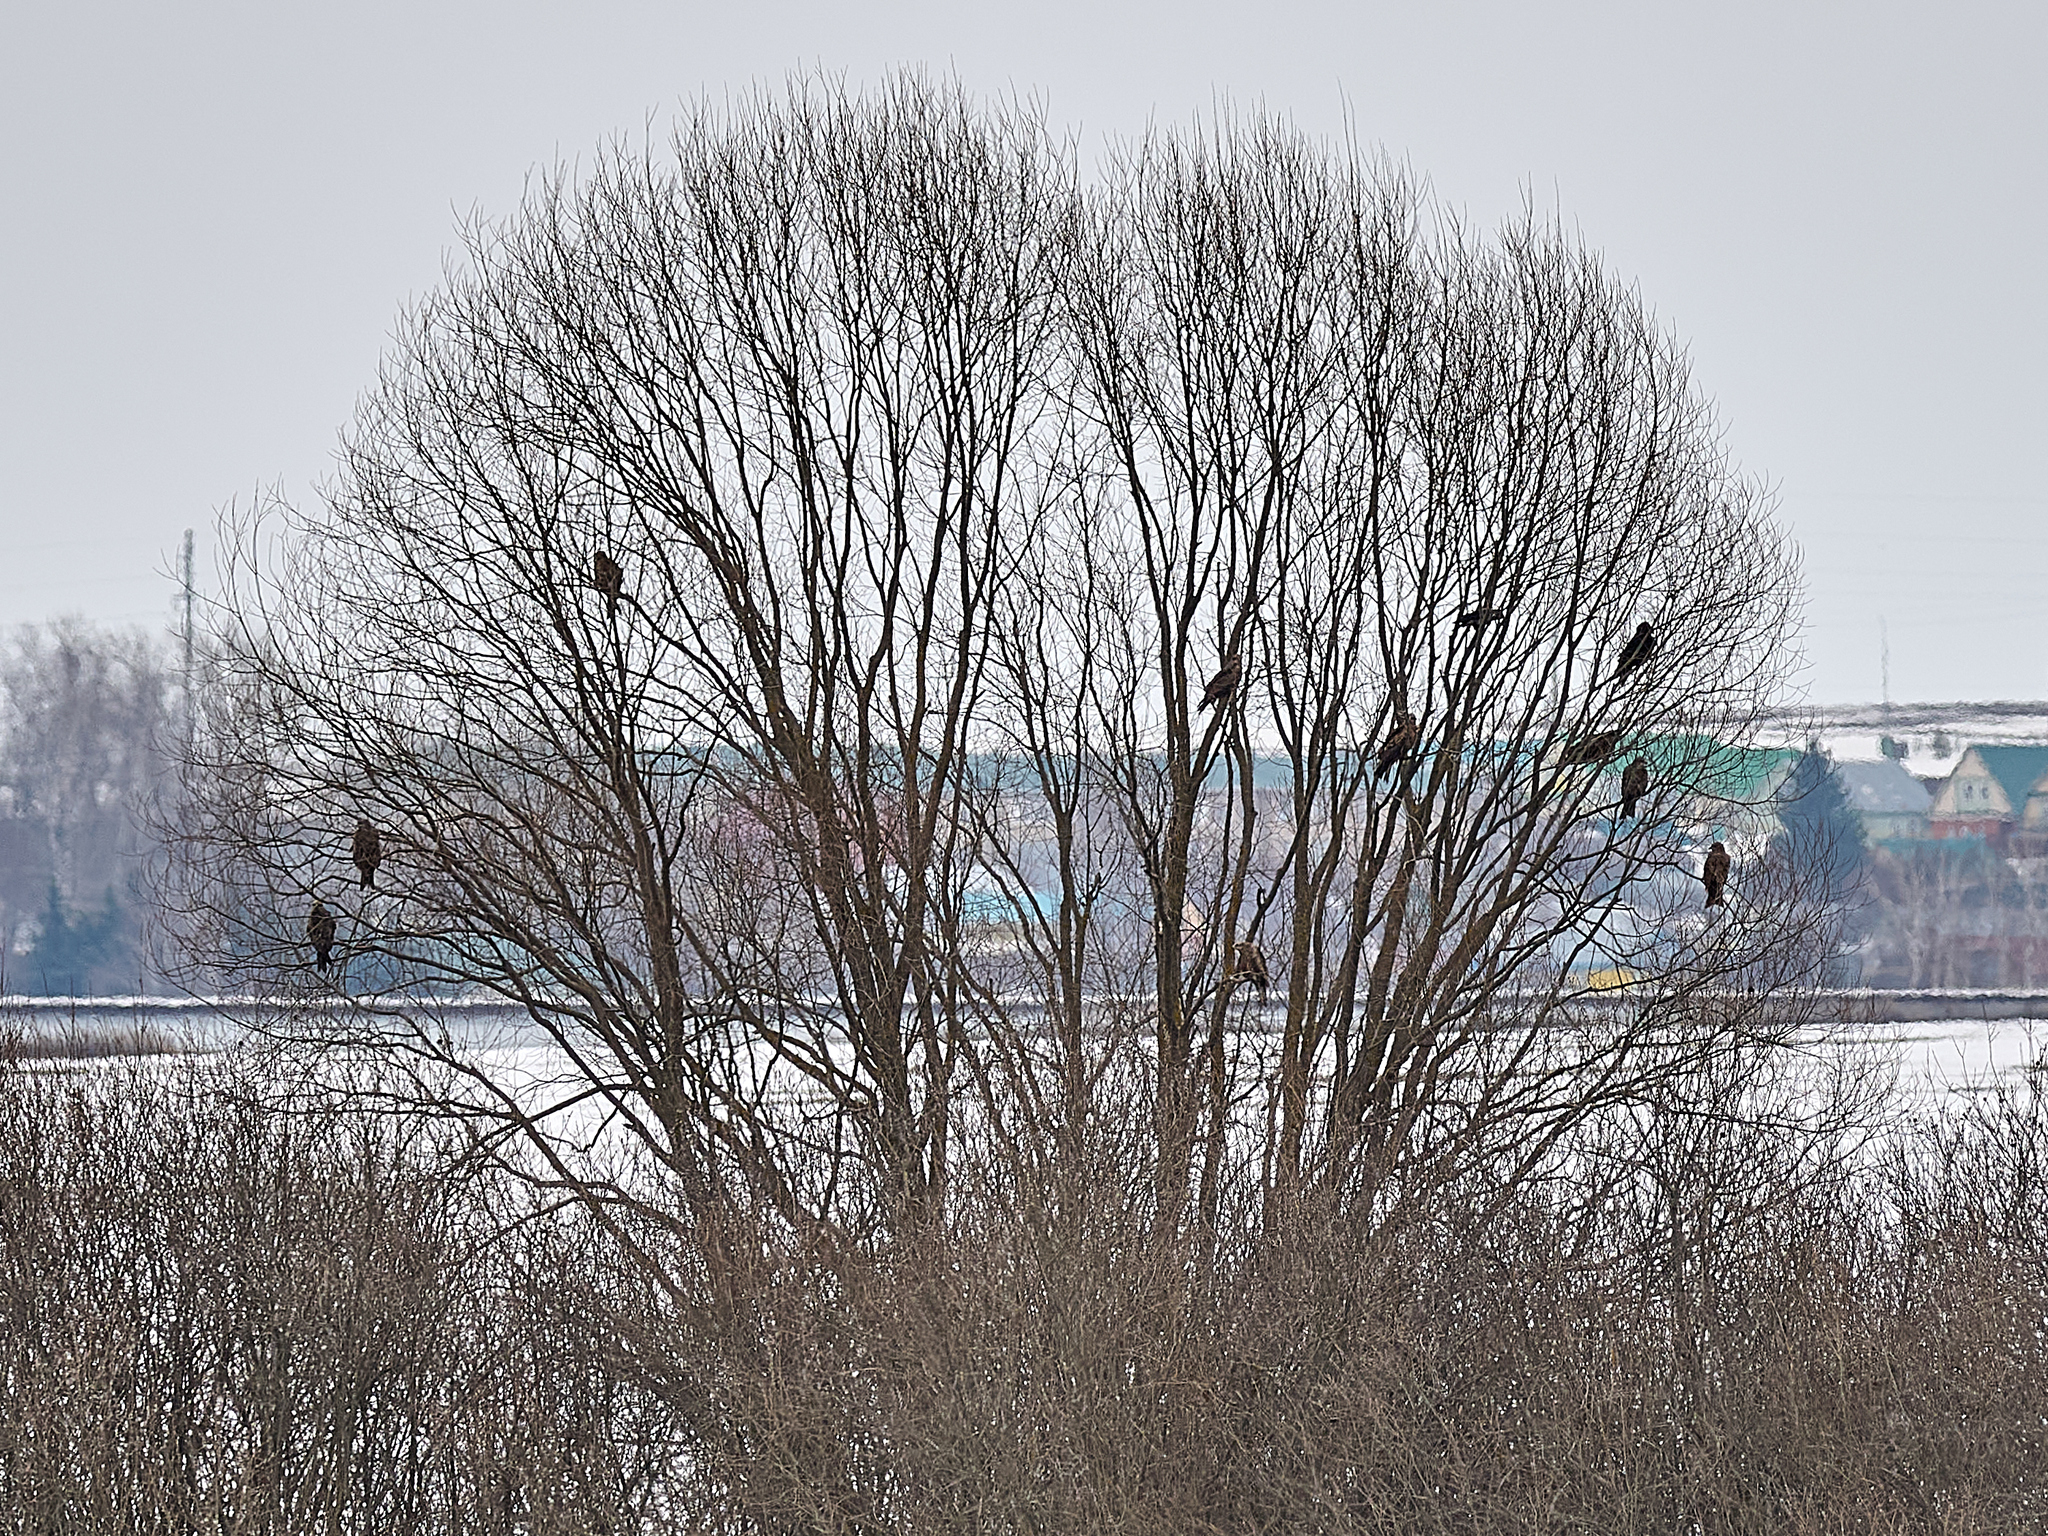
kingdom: Animalia
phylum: Chordata
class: Aves
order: Accipitriformes
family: Accipitridae
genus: Milvus
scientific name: Milvus migrans
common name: Black kite
